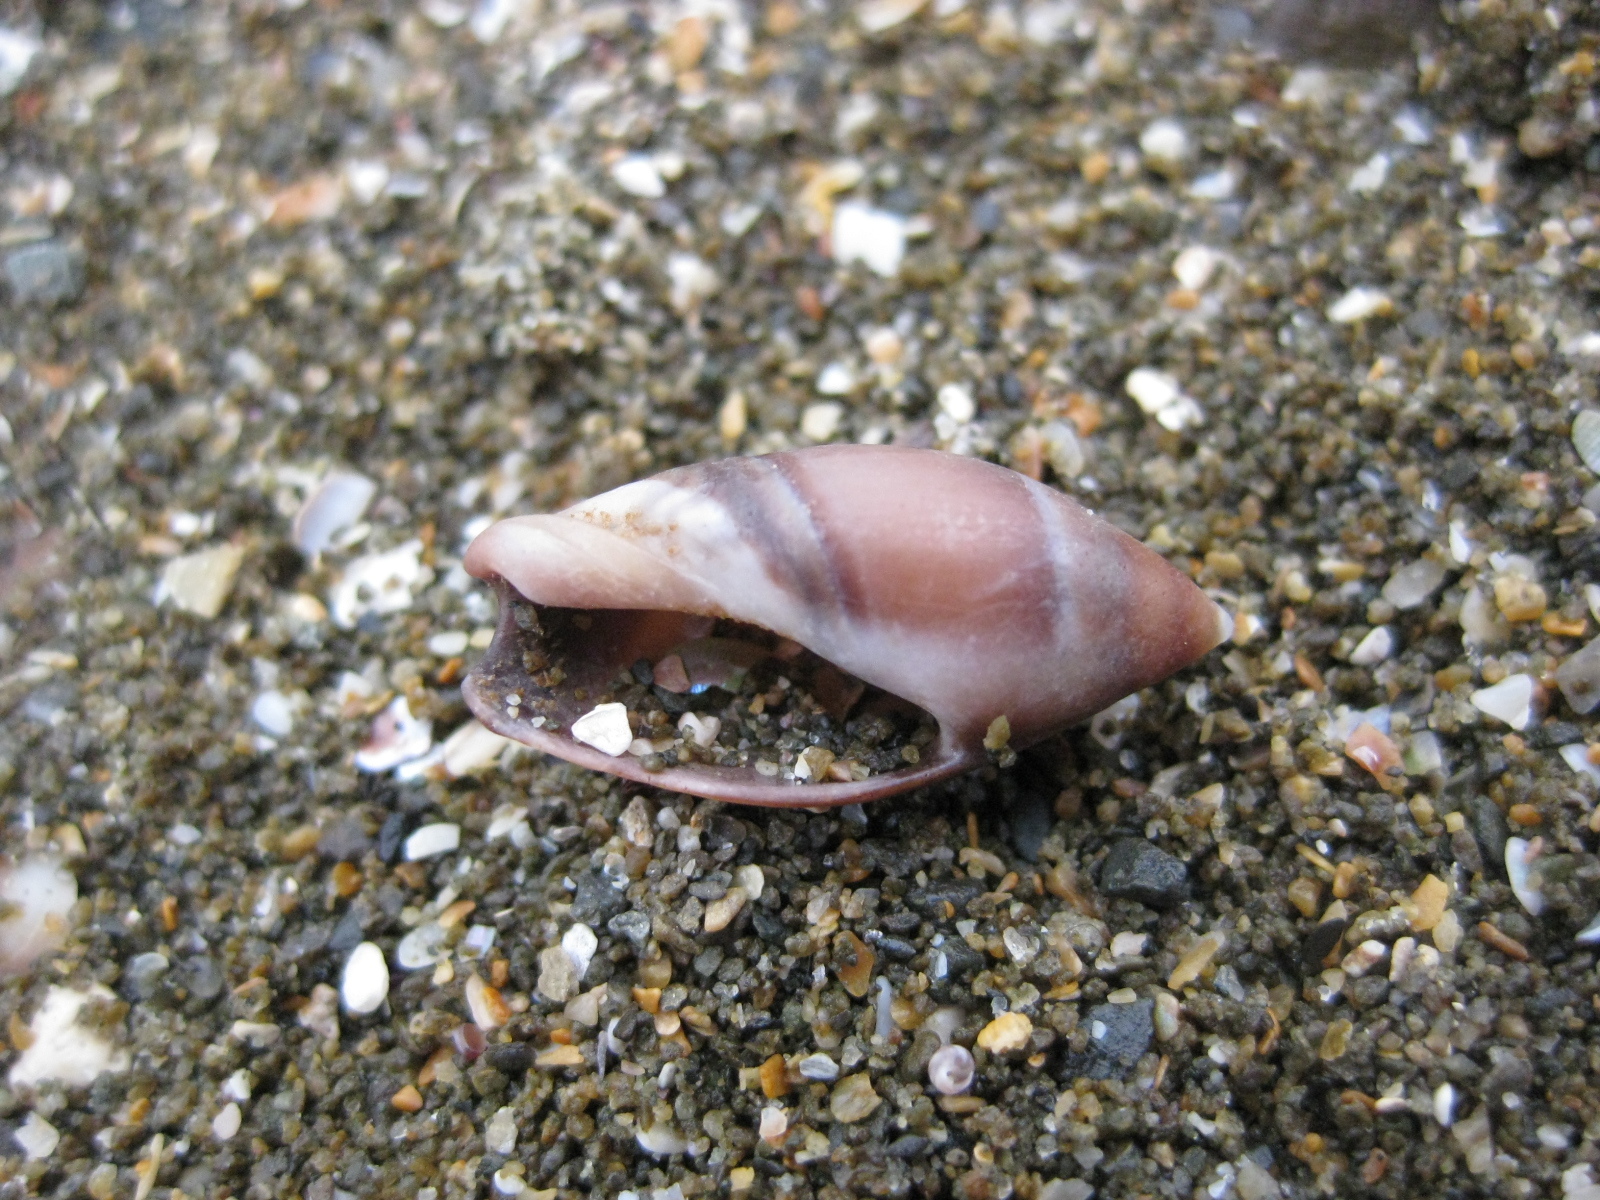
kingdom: Animalia
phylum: Mollusca
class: Gastropoda
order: Neogastropoda
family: Ancillariidae
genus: Amalda
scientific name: Amalda australis
